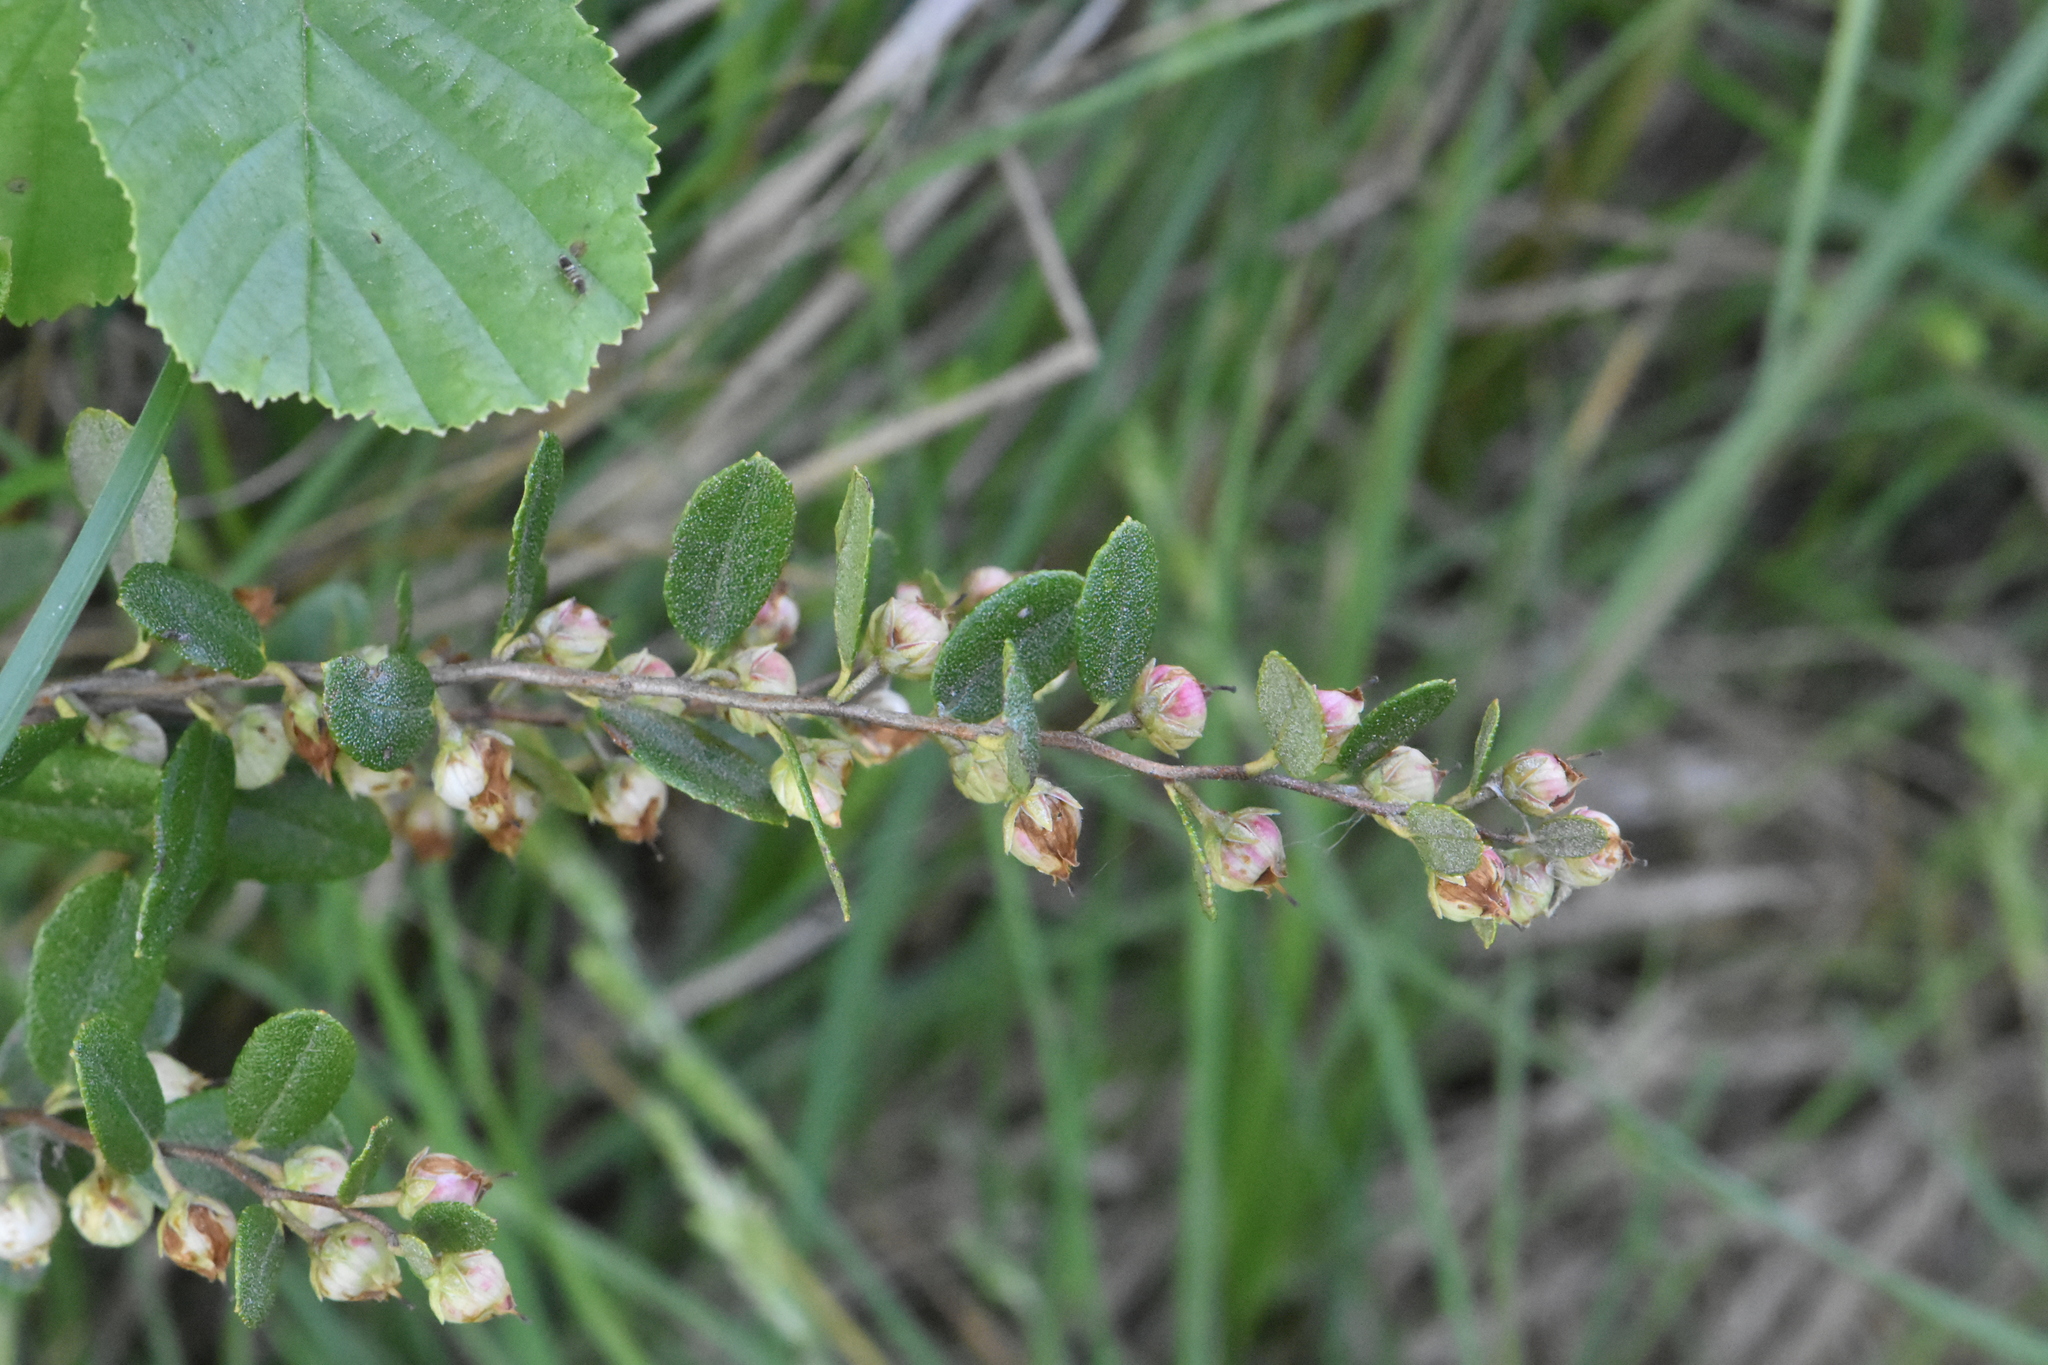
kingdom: Plantae
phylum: Tracheophyta
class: Magnoliopsida
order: Ericales
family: Ericaceae
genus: Chamaedaphne
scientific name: Chamaedaphne calyculata
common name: Leatherleaf
